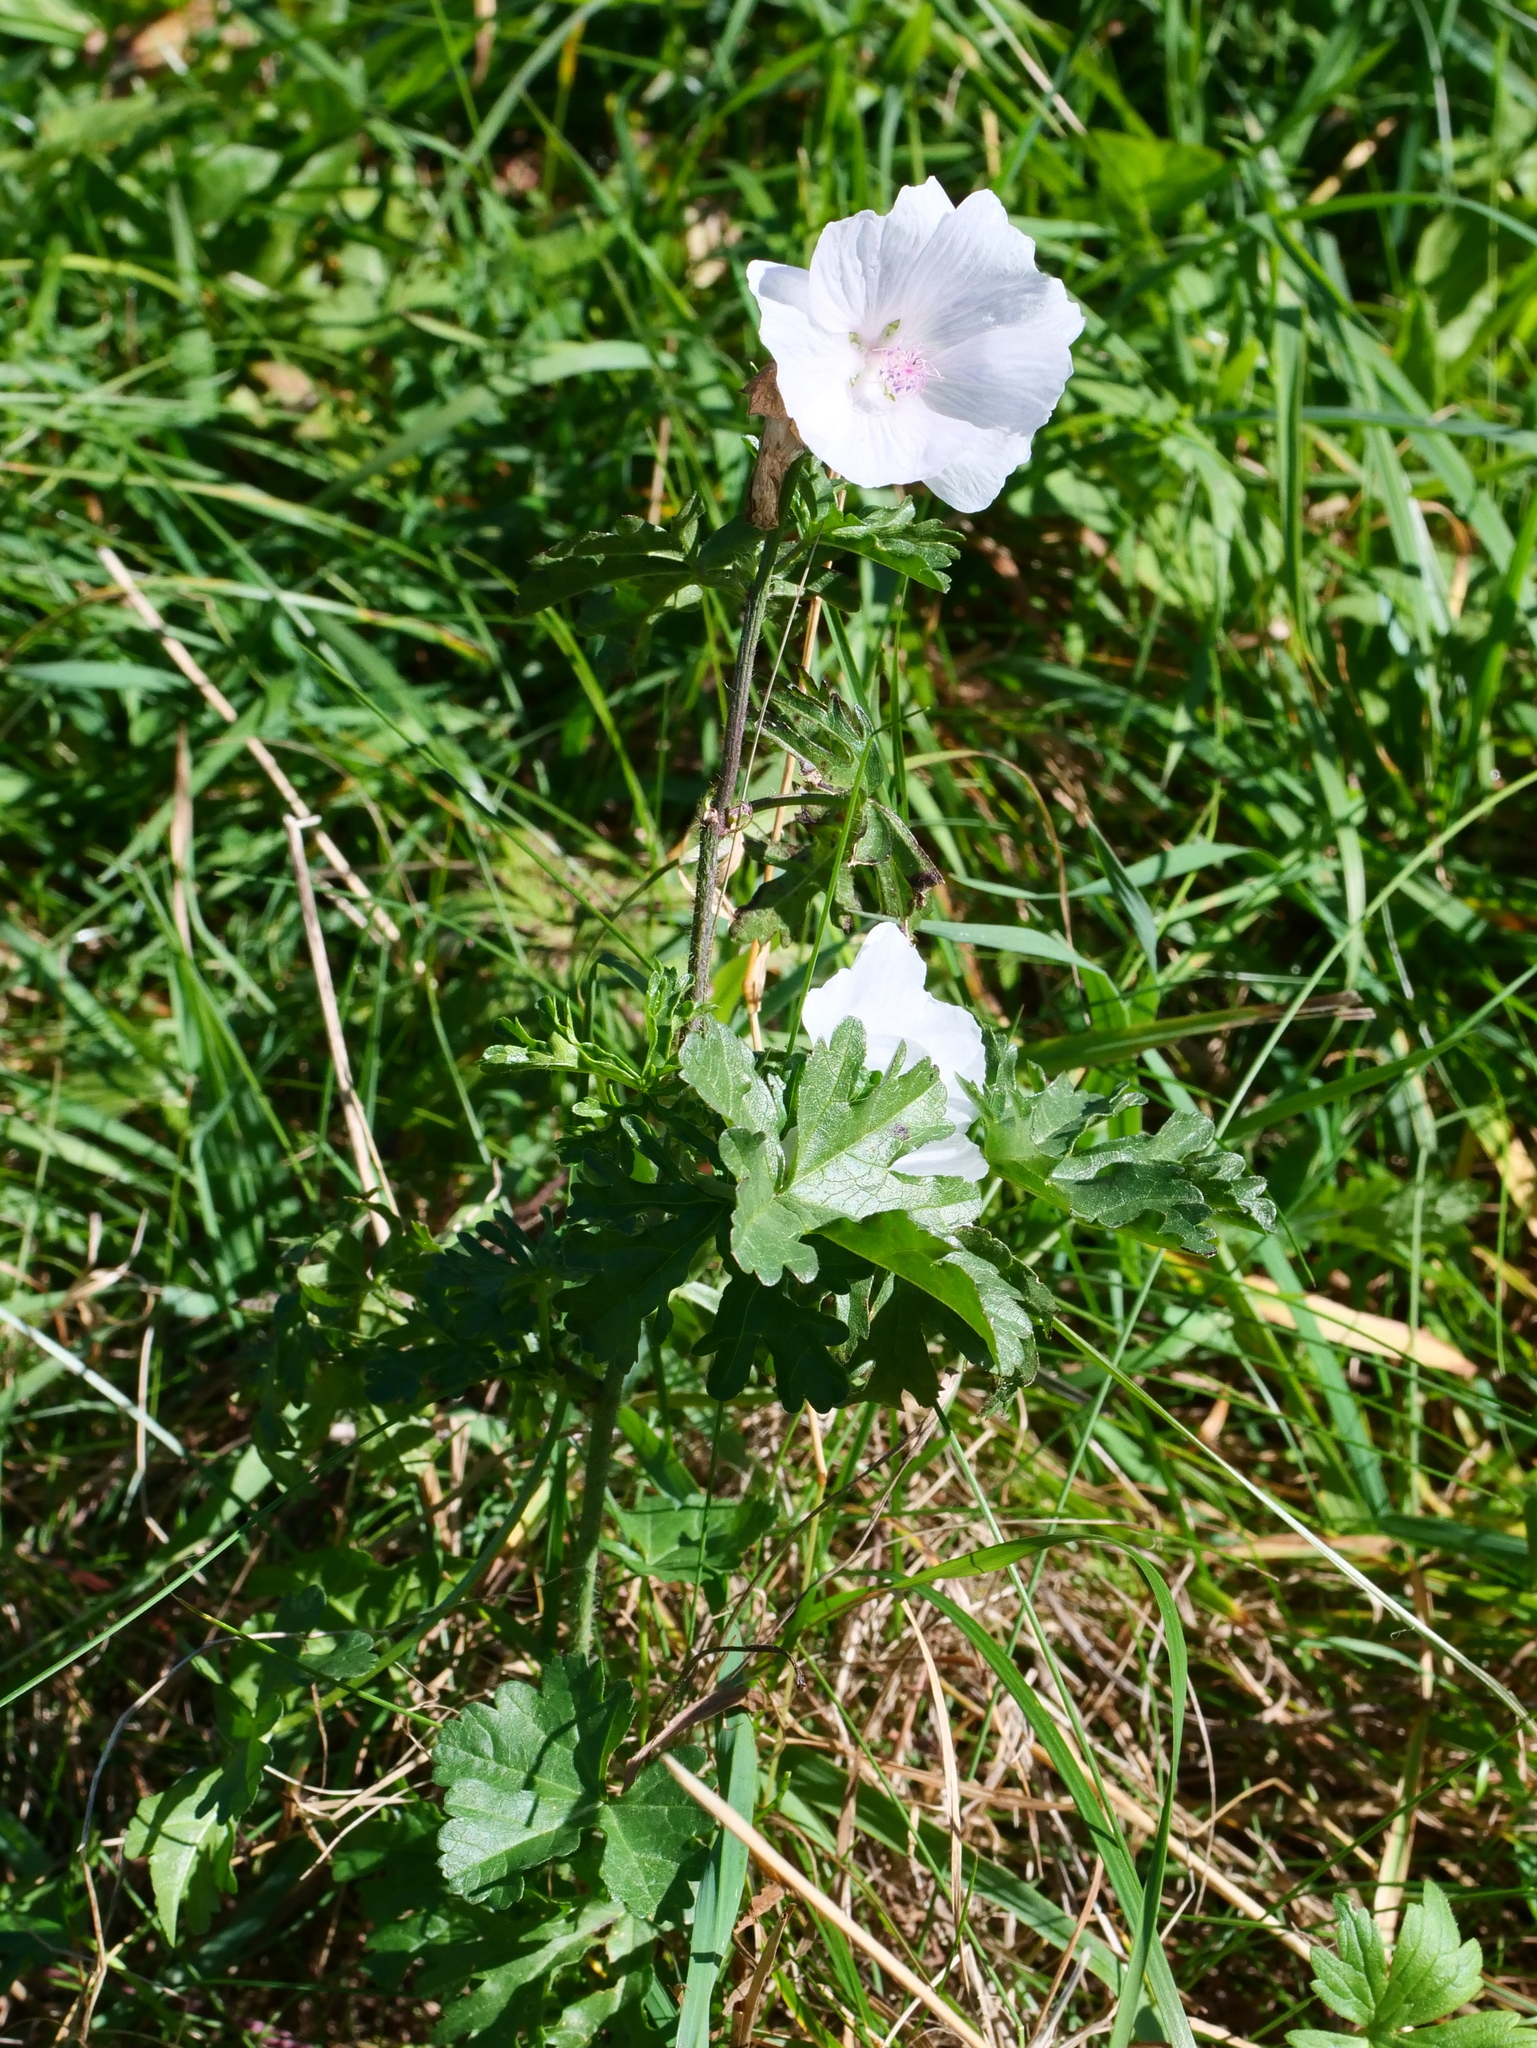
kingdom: Plantae
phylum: Tracheophyta
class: Magnoliopsida
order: Malvales
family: Malvaceae
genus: Malva
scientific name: Malva moschata
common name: Musk mallow
